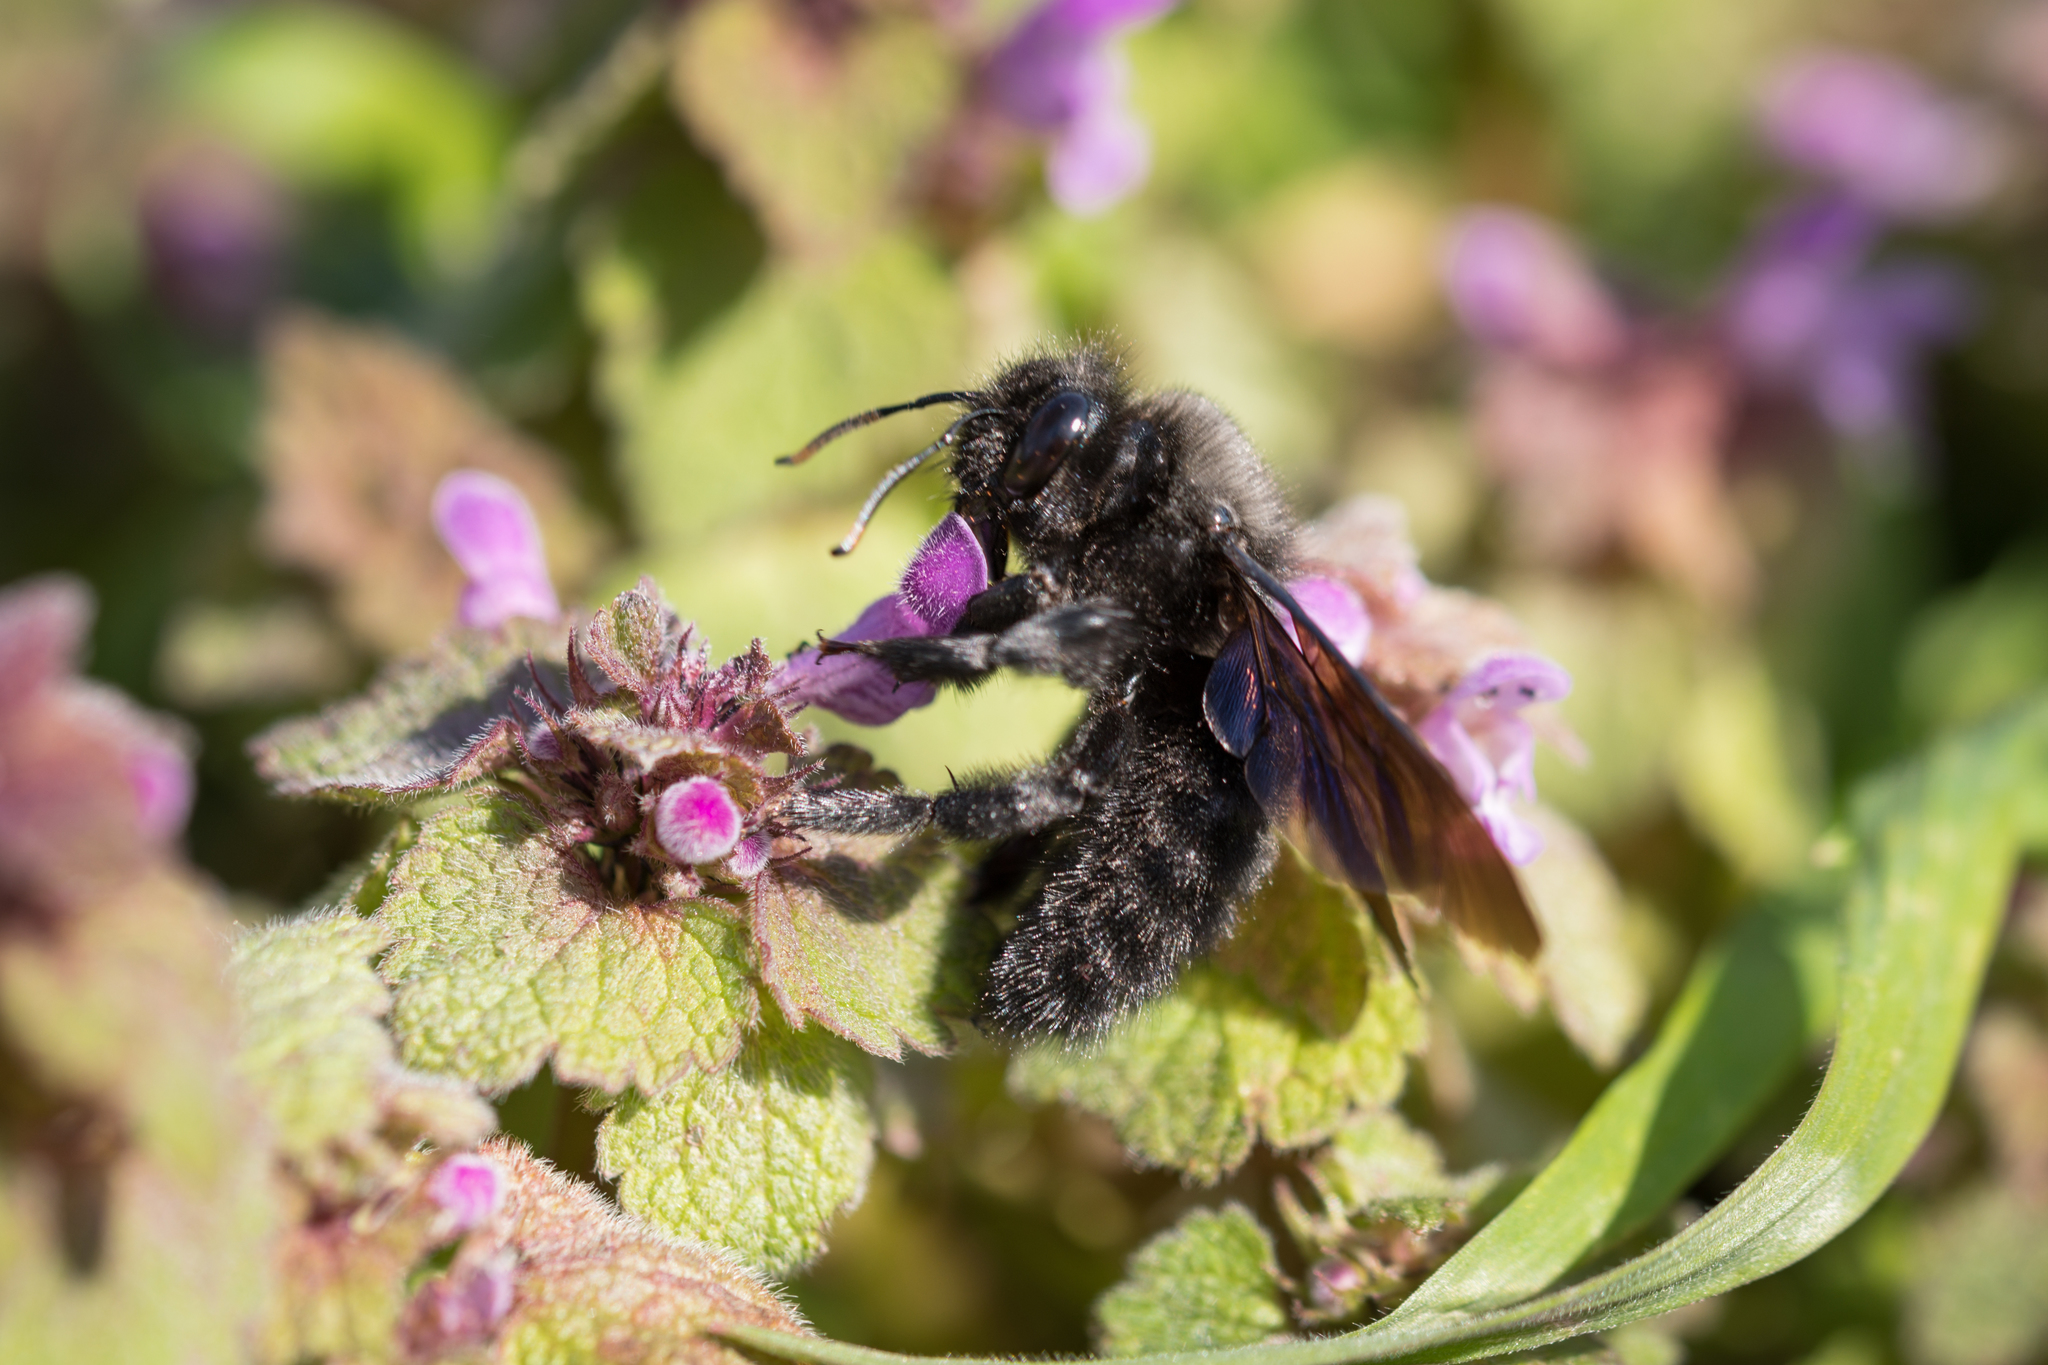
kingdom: Animalia
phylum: Arthropoda
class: Insecta
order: Hymenoptera
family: Apidae
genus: Xylocopa
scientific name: Xylocopa violacea
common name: Violet carpenter bee
